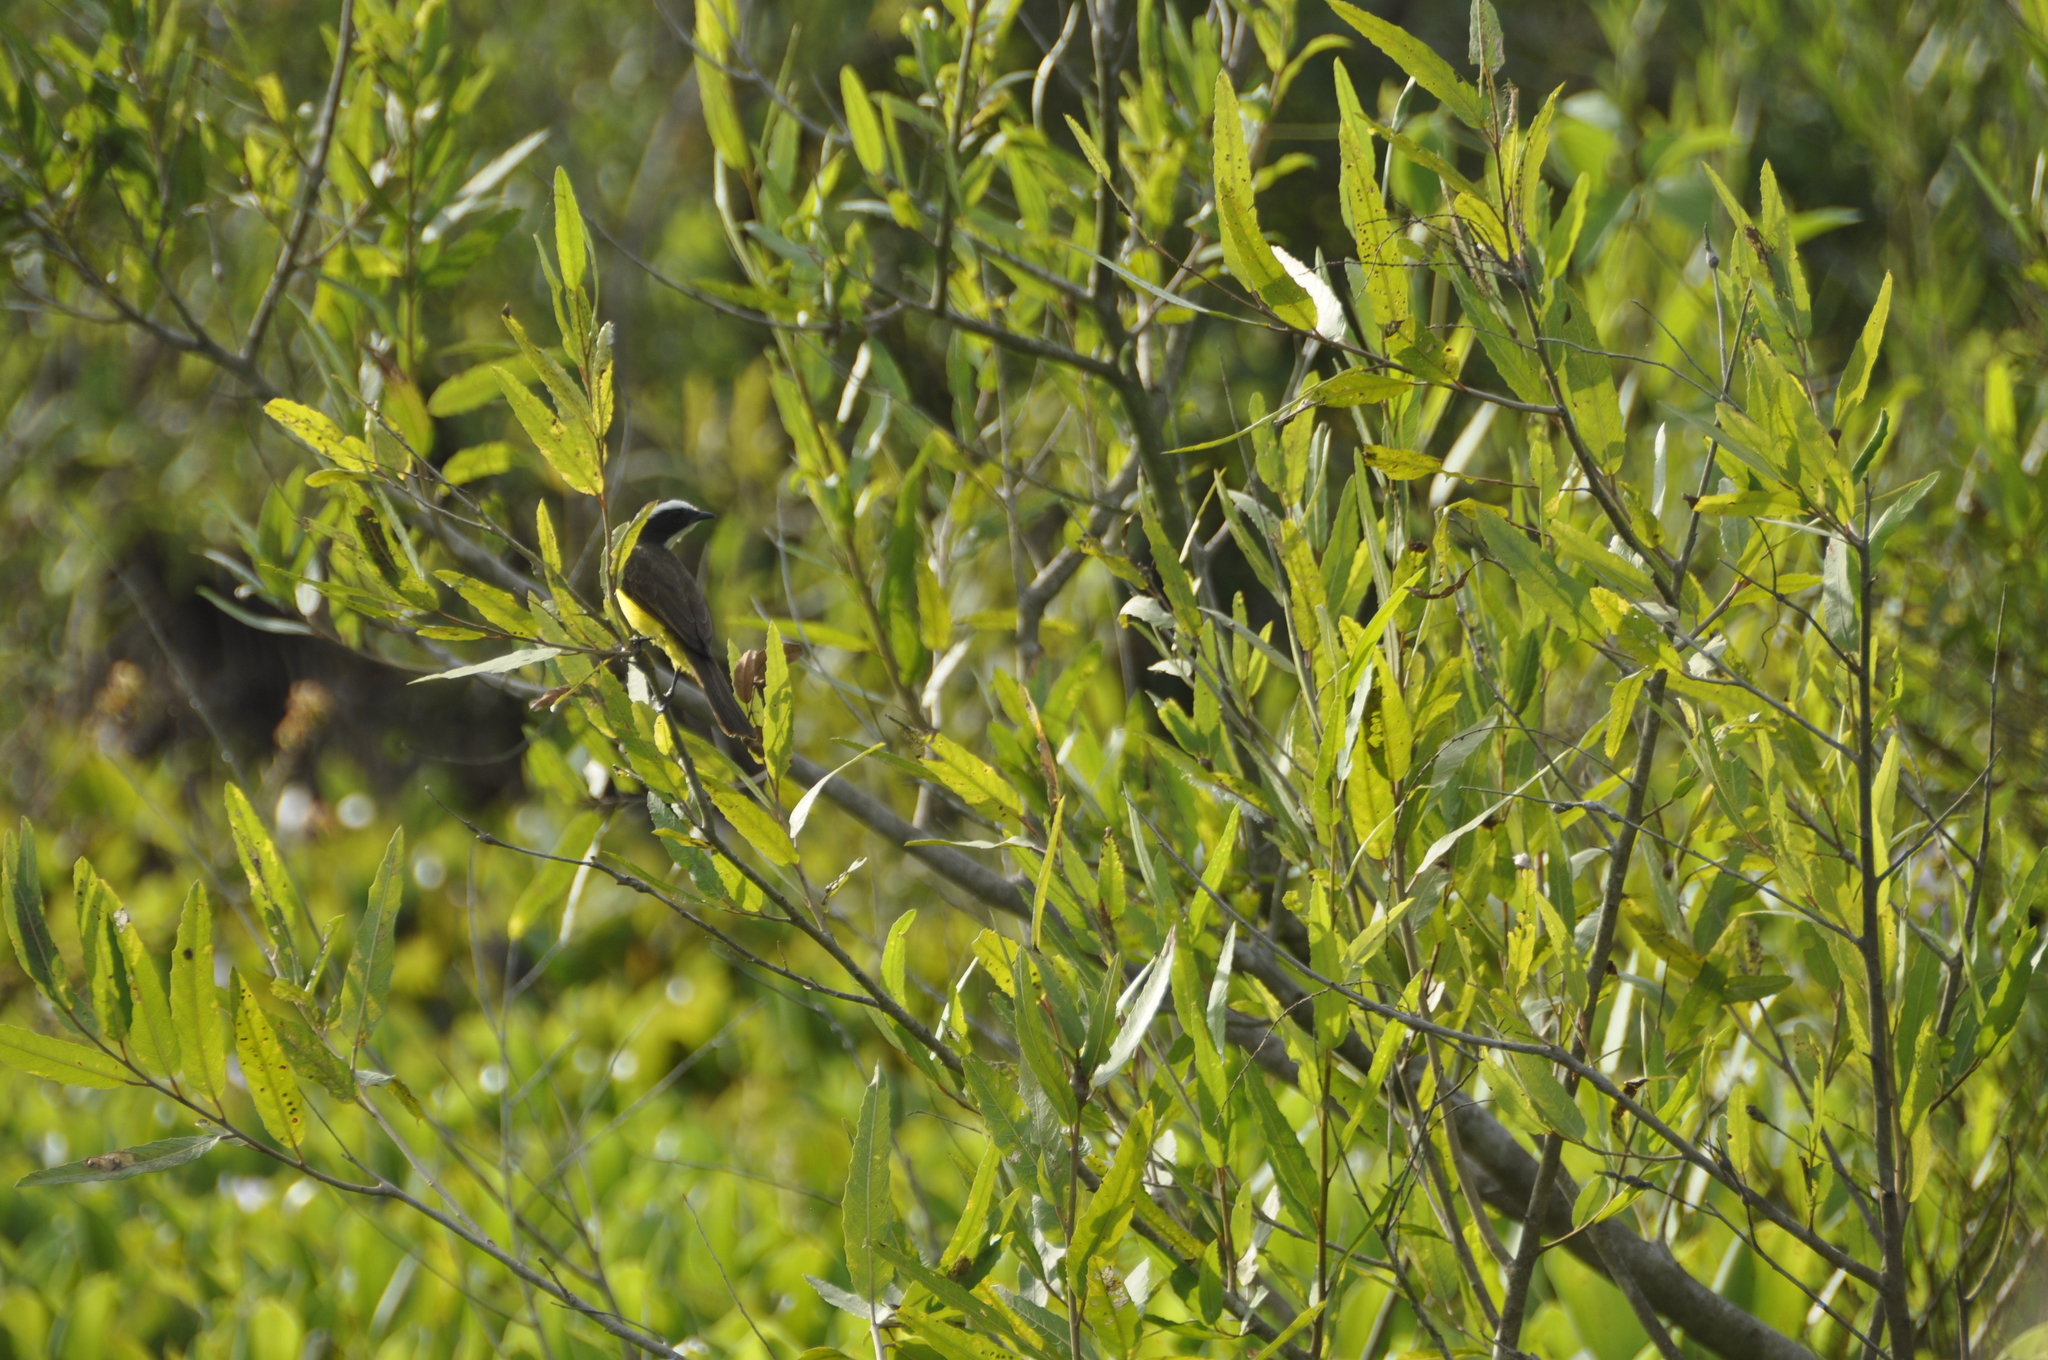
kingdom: Animalia
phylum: Chordata
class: Aves
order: Passeriformes
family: Tyrannidae
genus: Myiozetetes
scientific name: Myiozetetes cayanensis
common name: Rusty-margined flycatcher
